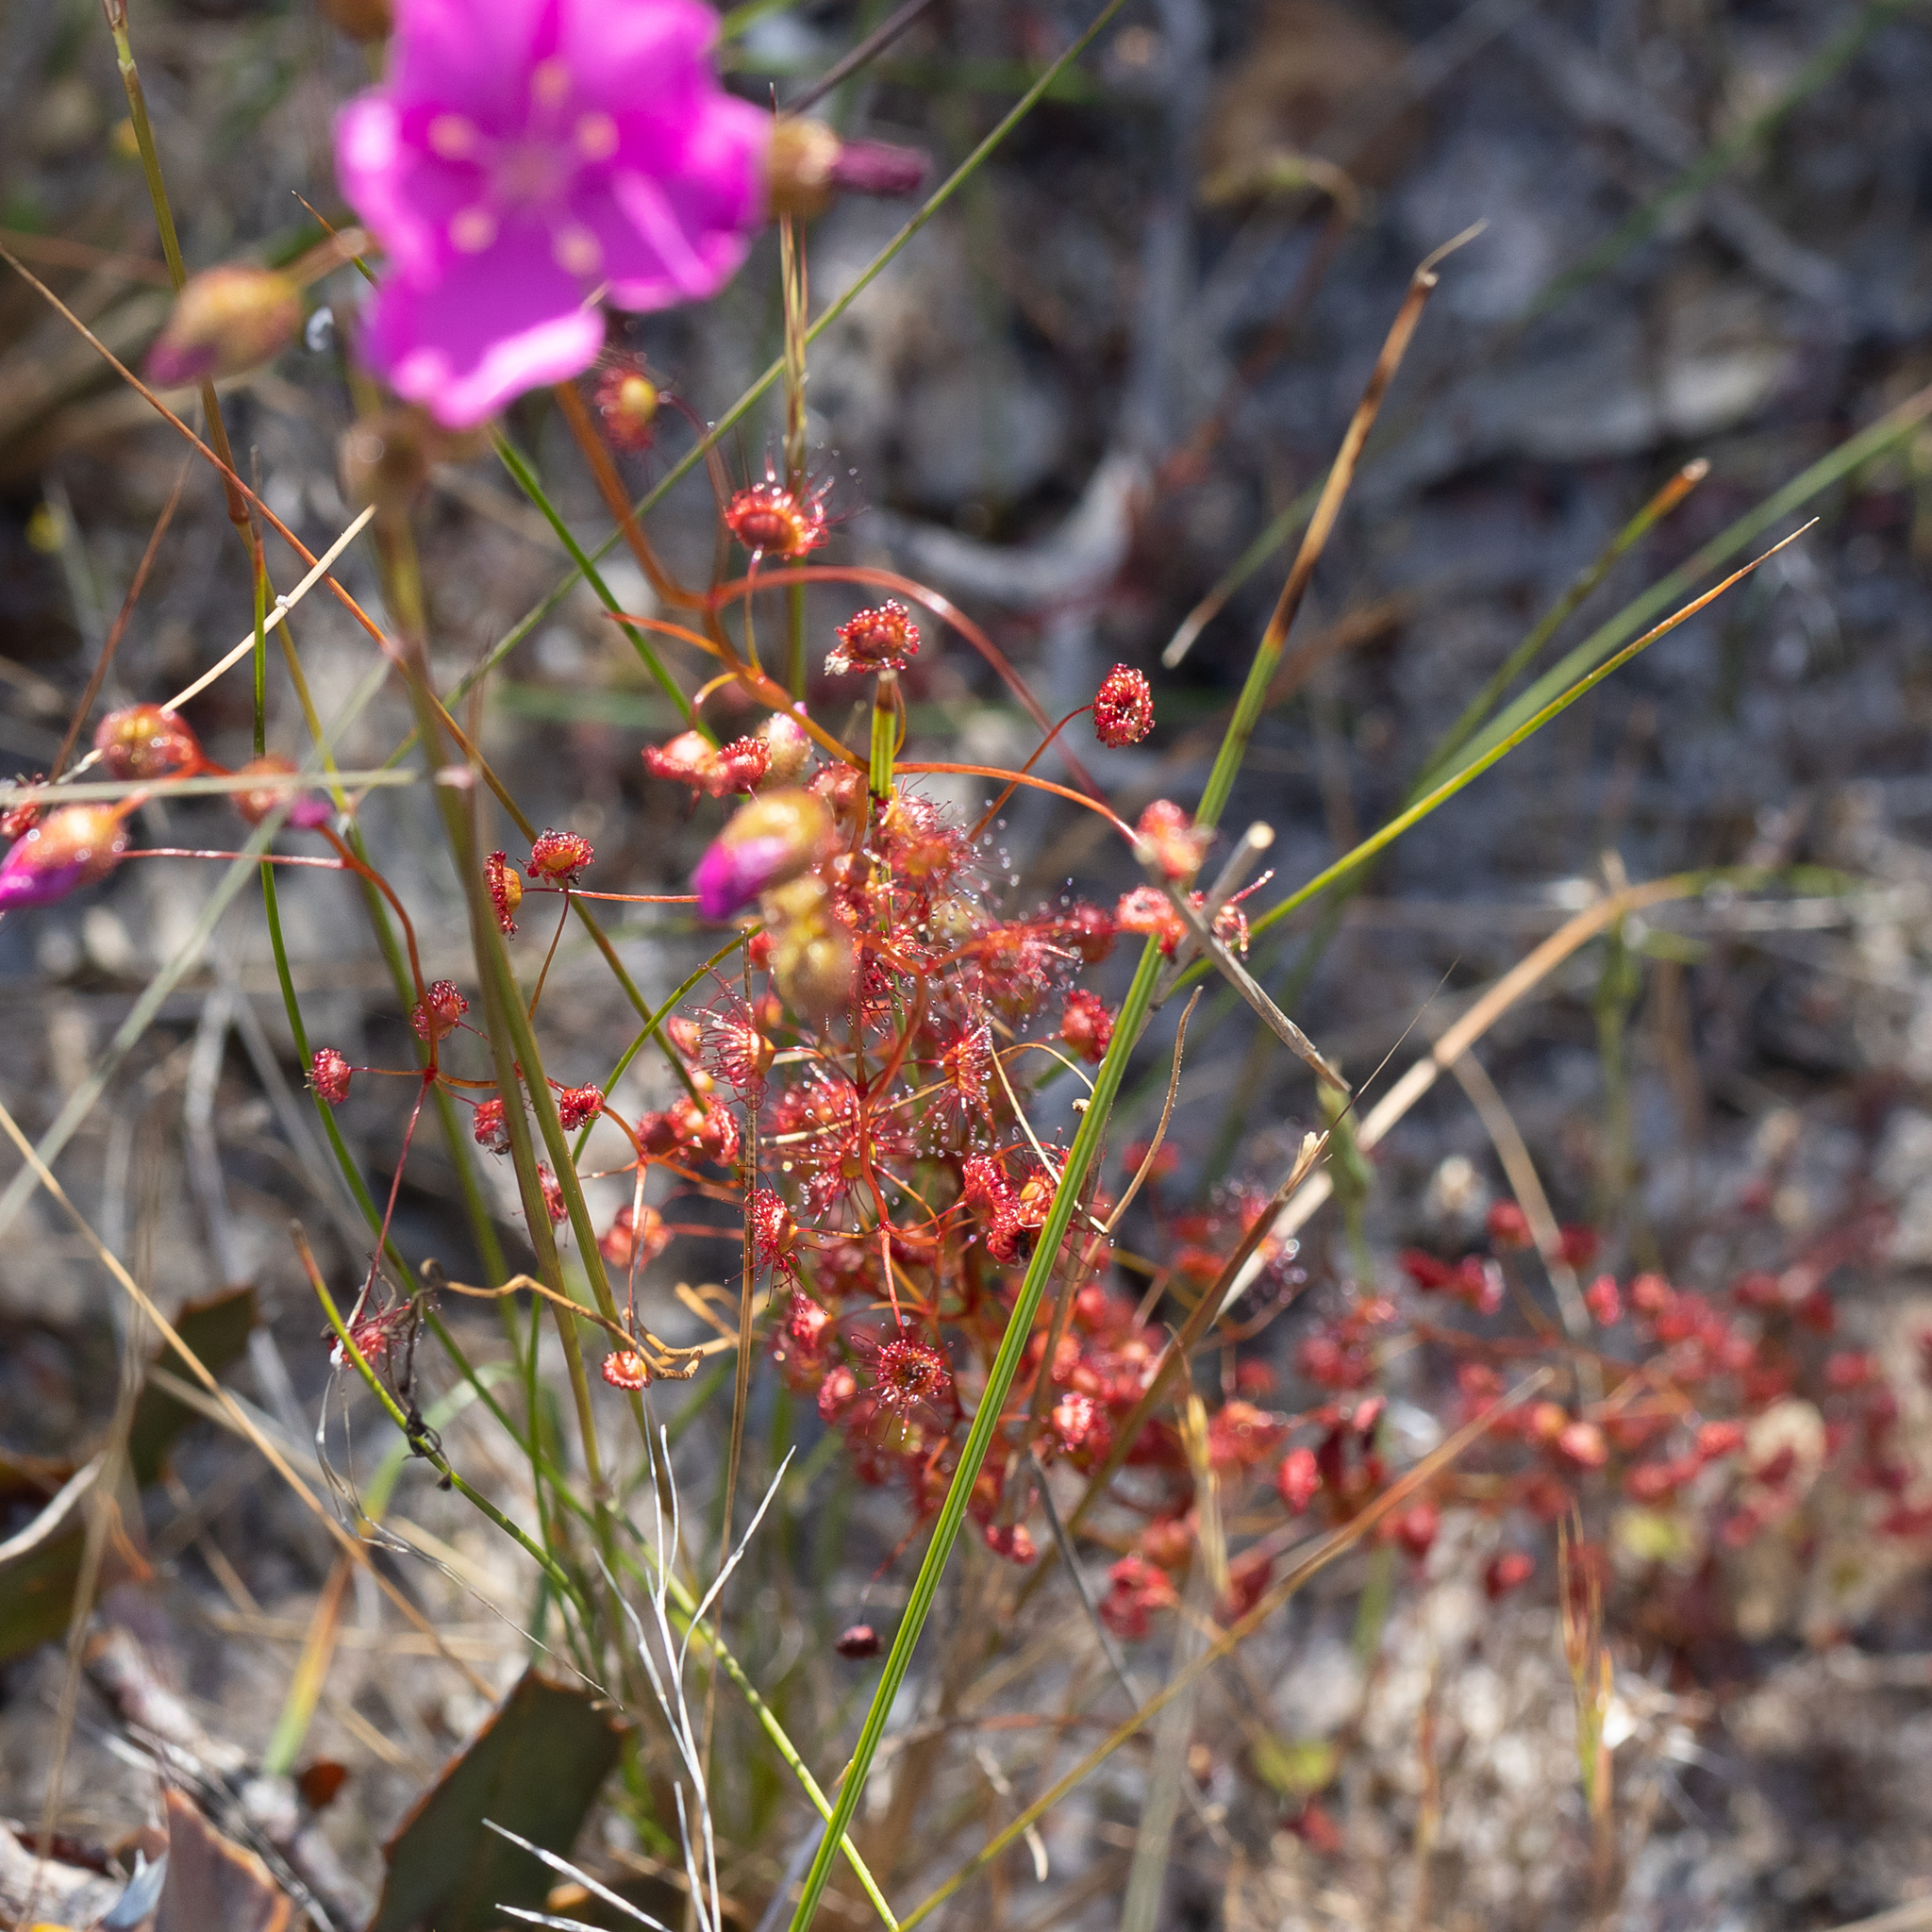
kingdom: Plantae
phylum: Tracheophyta
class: Magnoliopsida
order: Caryophyllales
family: Droseraceae
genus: Drosera
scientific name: Drosera
